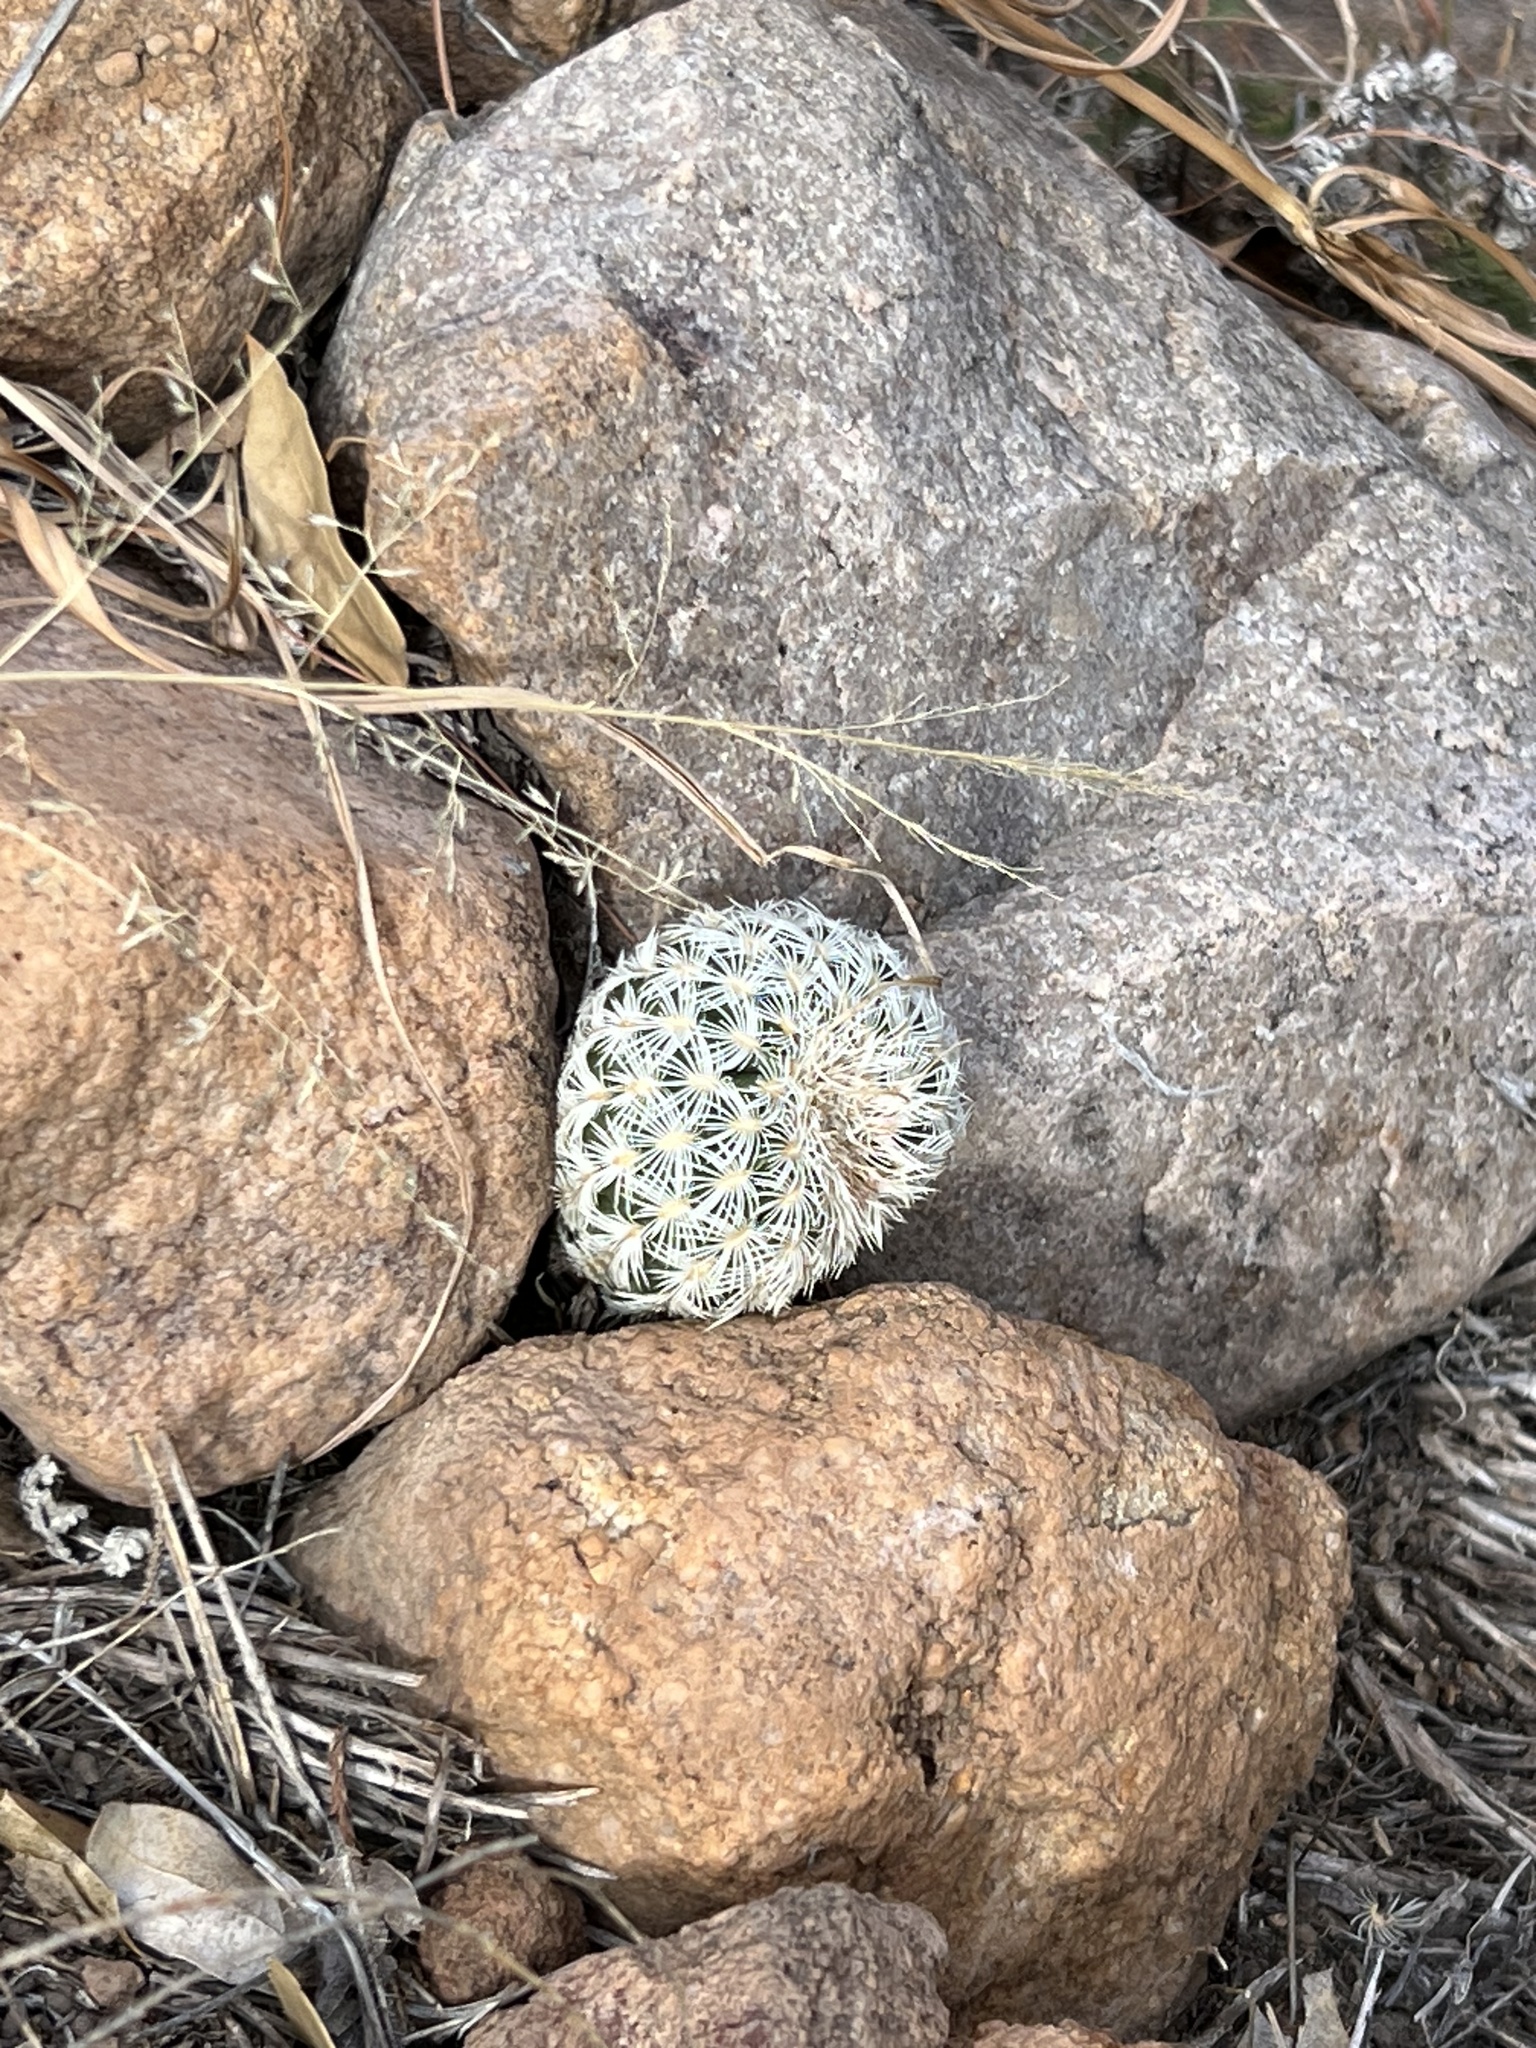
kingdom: Plantae
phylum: Tracheophyta
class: Magnoliopsida
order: Caryophyllales
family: Cactaceae
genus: Echinocereus
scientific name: Echinocereus rigidissimus
